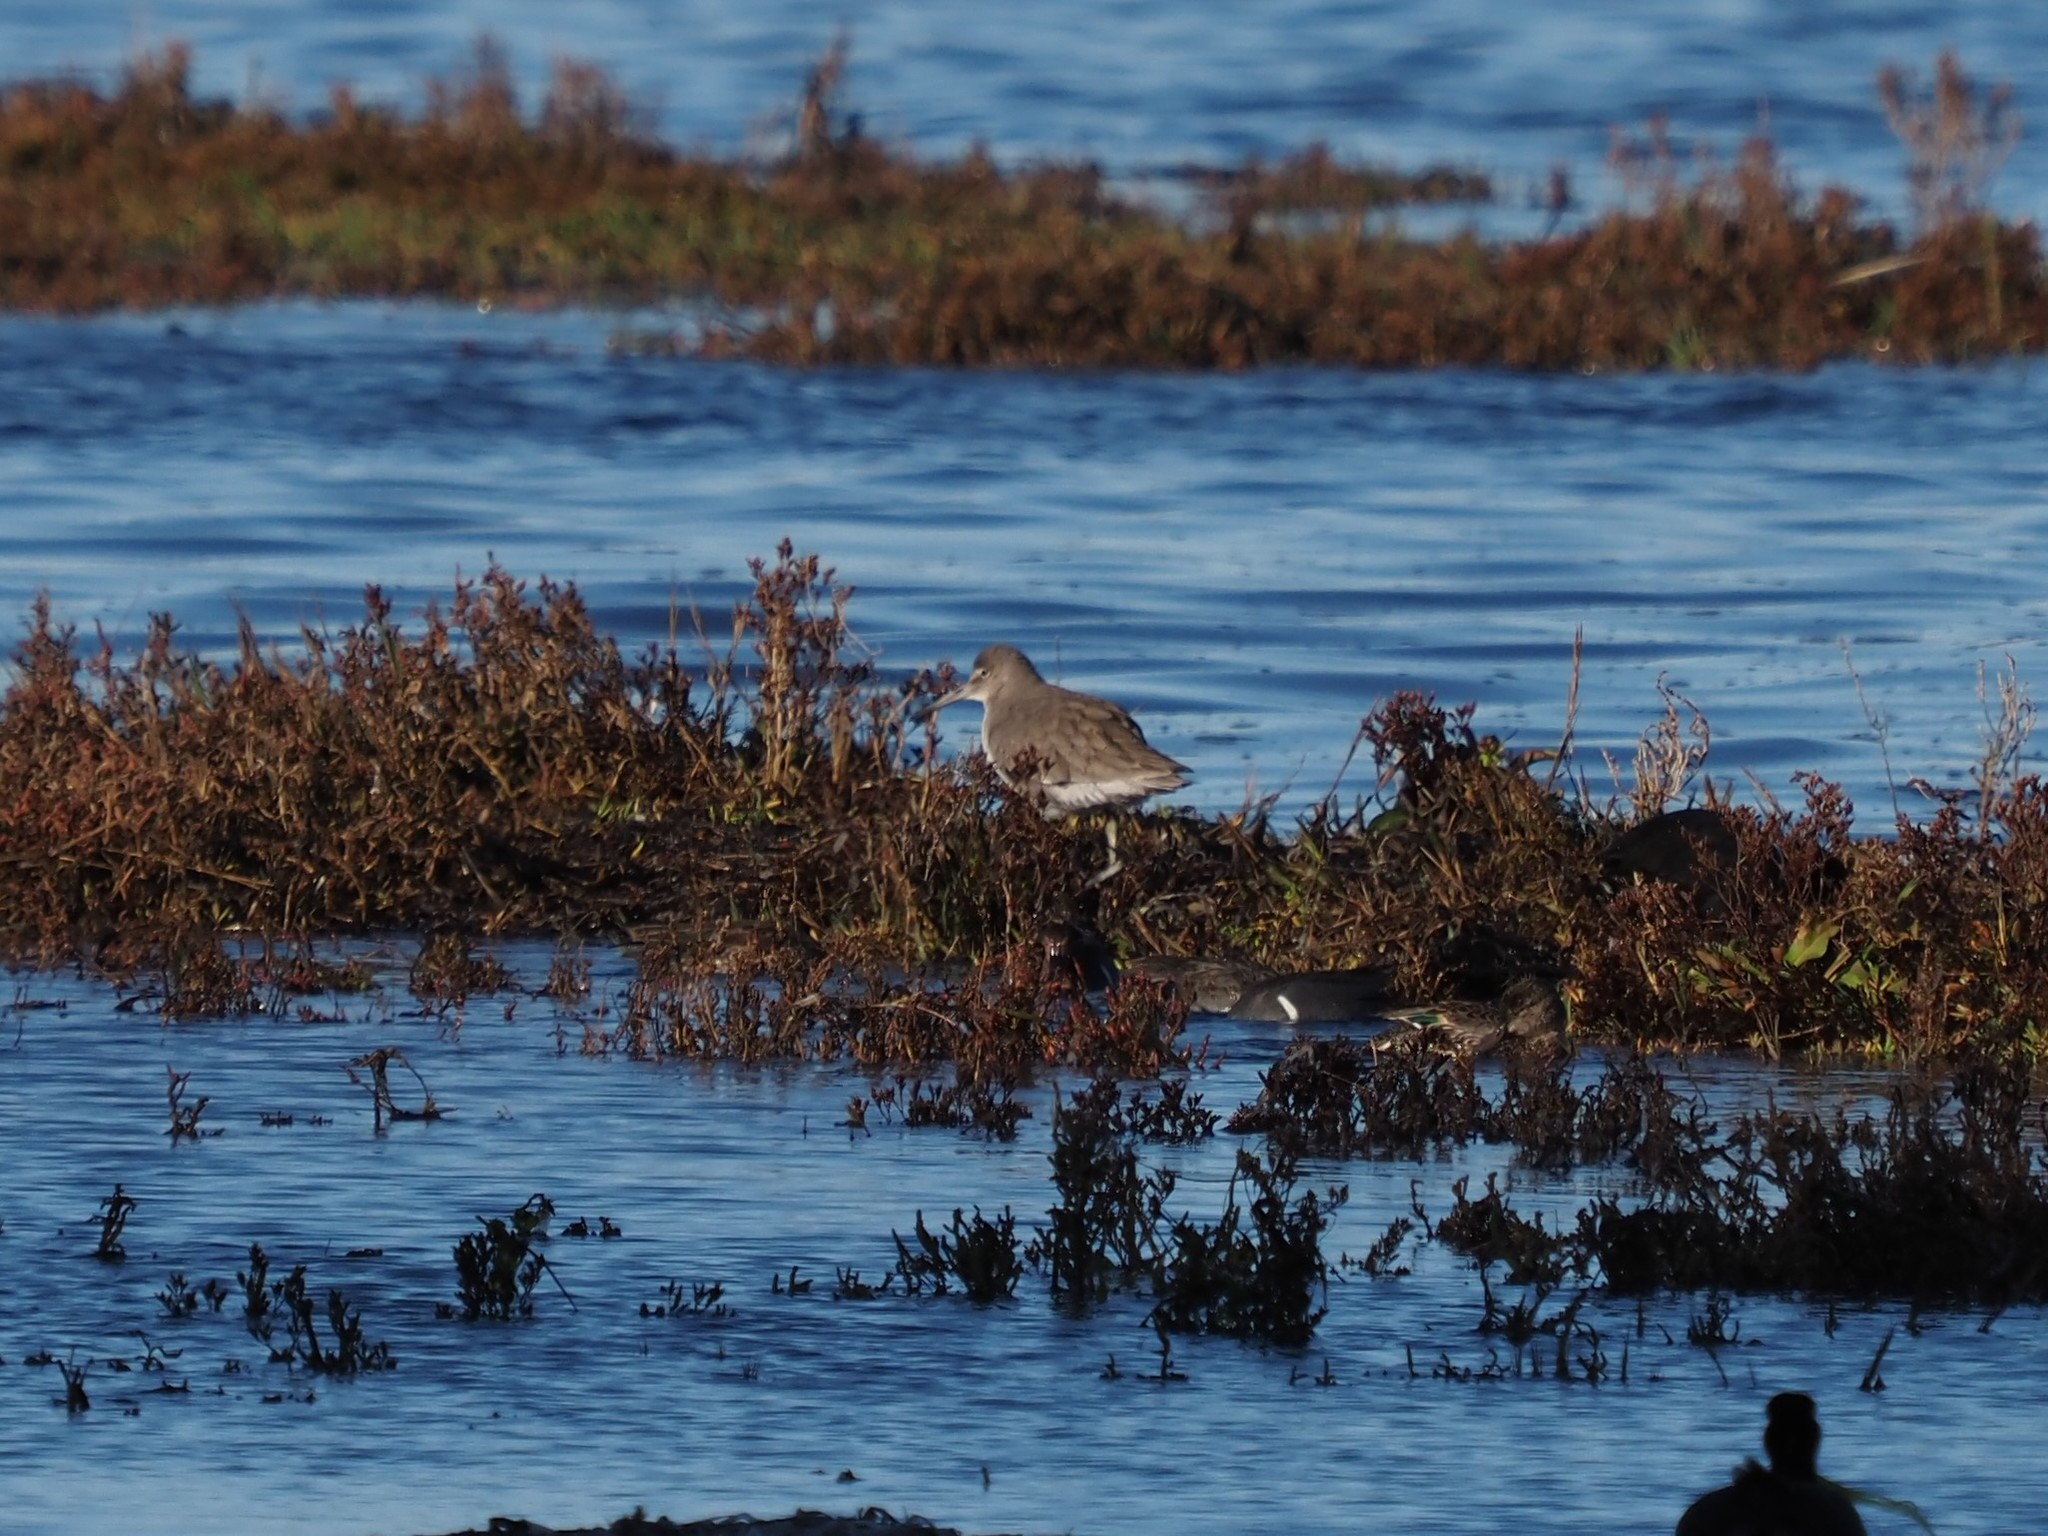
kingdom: Animalia
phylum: Chordata
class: Aves
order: Charadriiformes
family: Scolopacidae
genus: Tringa
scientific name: Tringa semipalmata
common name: Willet
